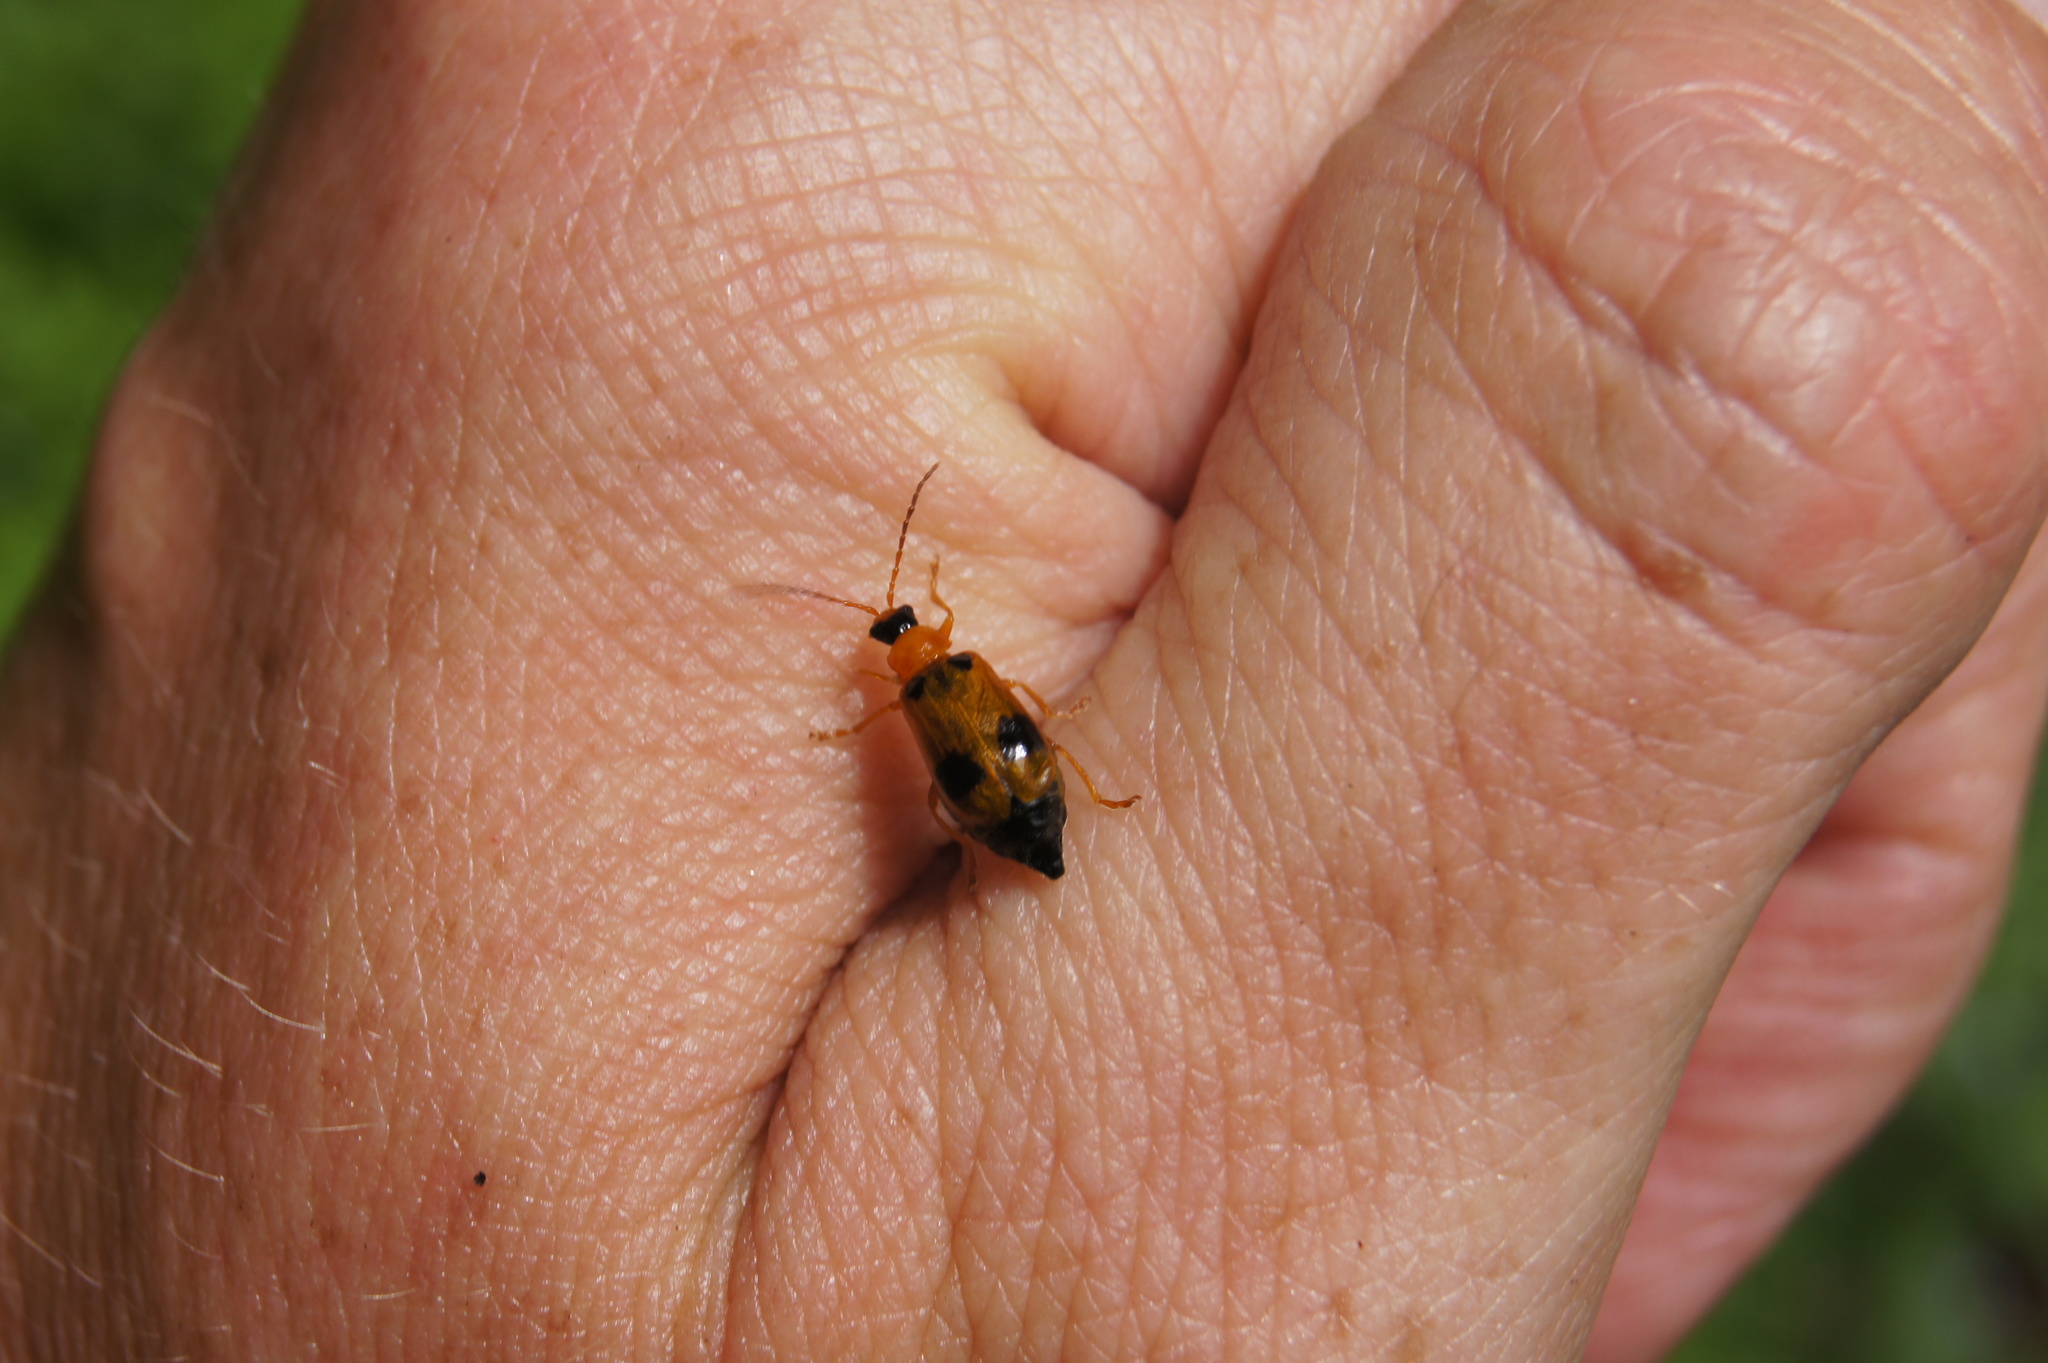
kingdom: Animalia
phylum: Arthropoda
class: Insecta
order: Coleoptera
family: Chrysomelidae
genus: Phyllobrotica
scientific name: Phyllobrotica quadrimaculata
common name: Skullcap leaf beetle
